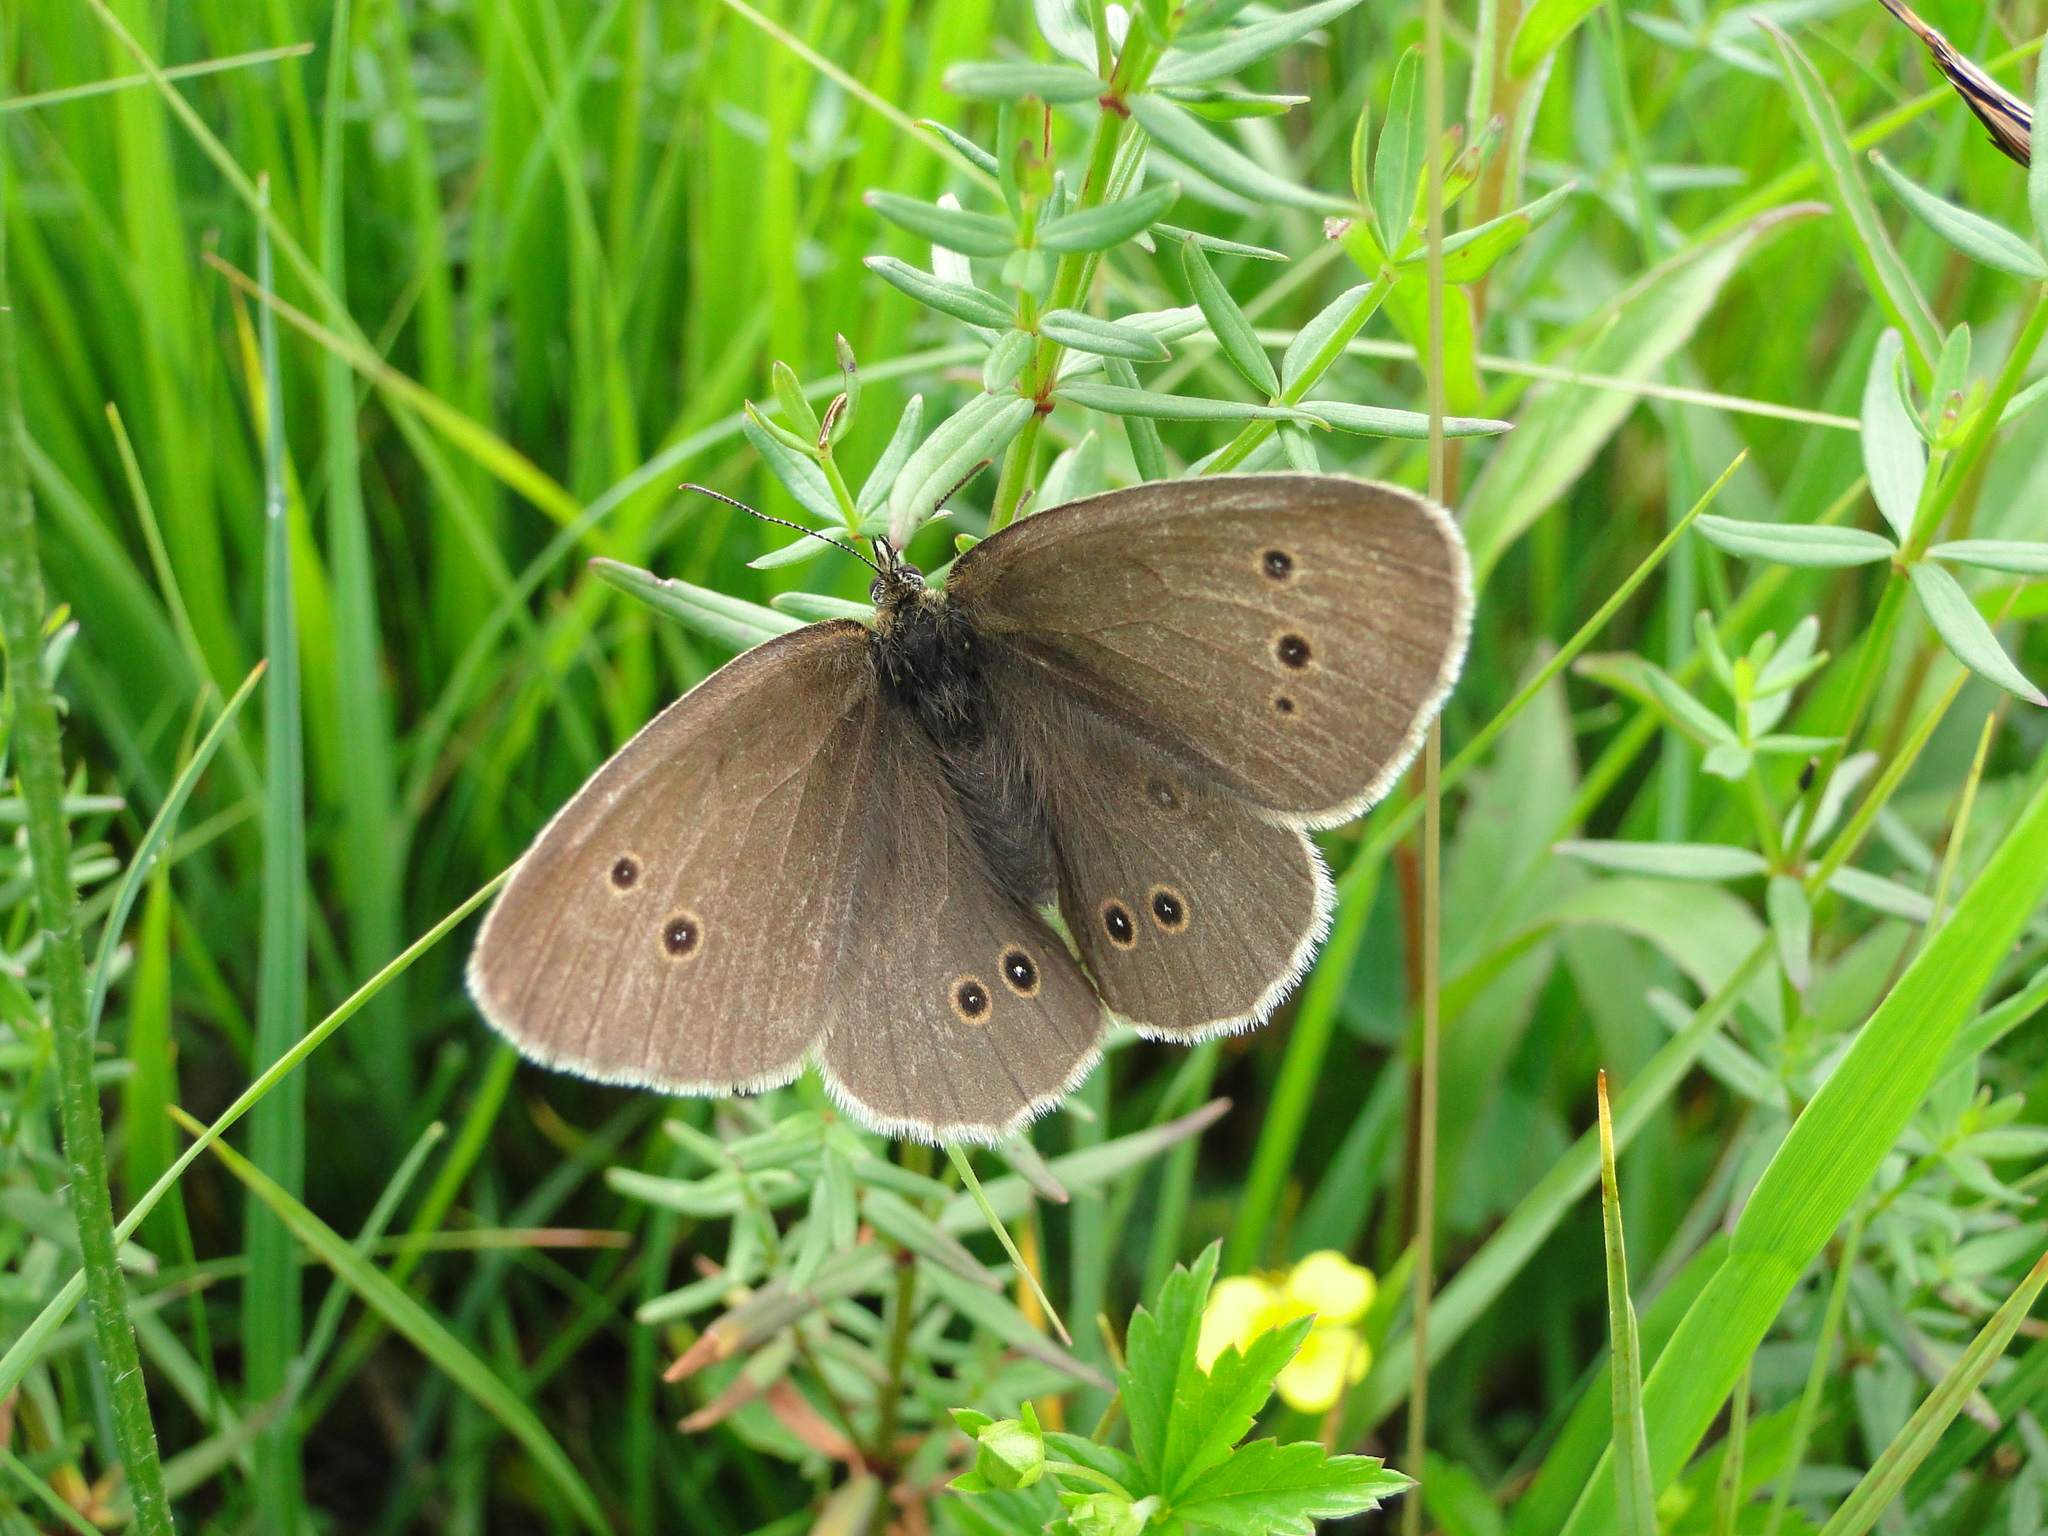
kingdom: Animalia
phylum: Arthropoda
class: Insecta
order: Lepidoptera
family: Nymphalidae
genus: Aphantopus
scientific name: Aphantopus hyperantus
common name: Ringlet
